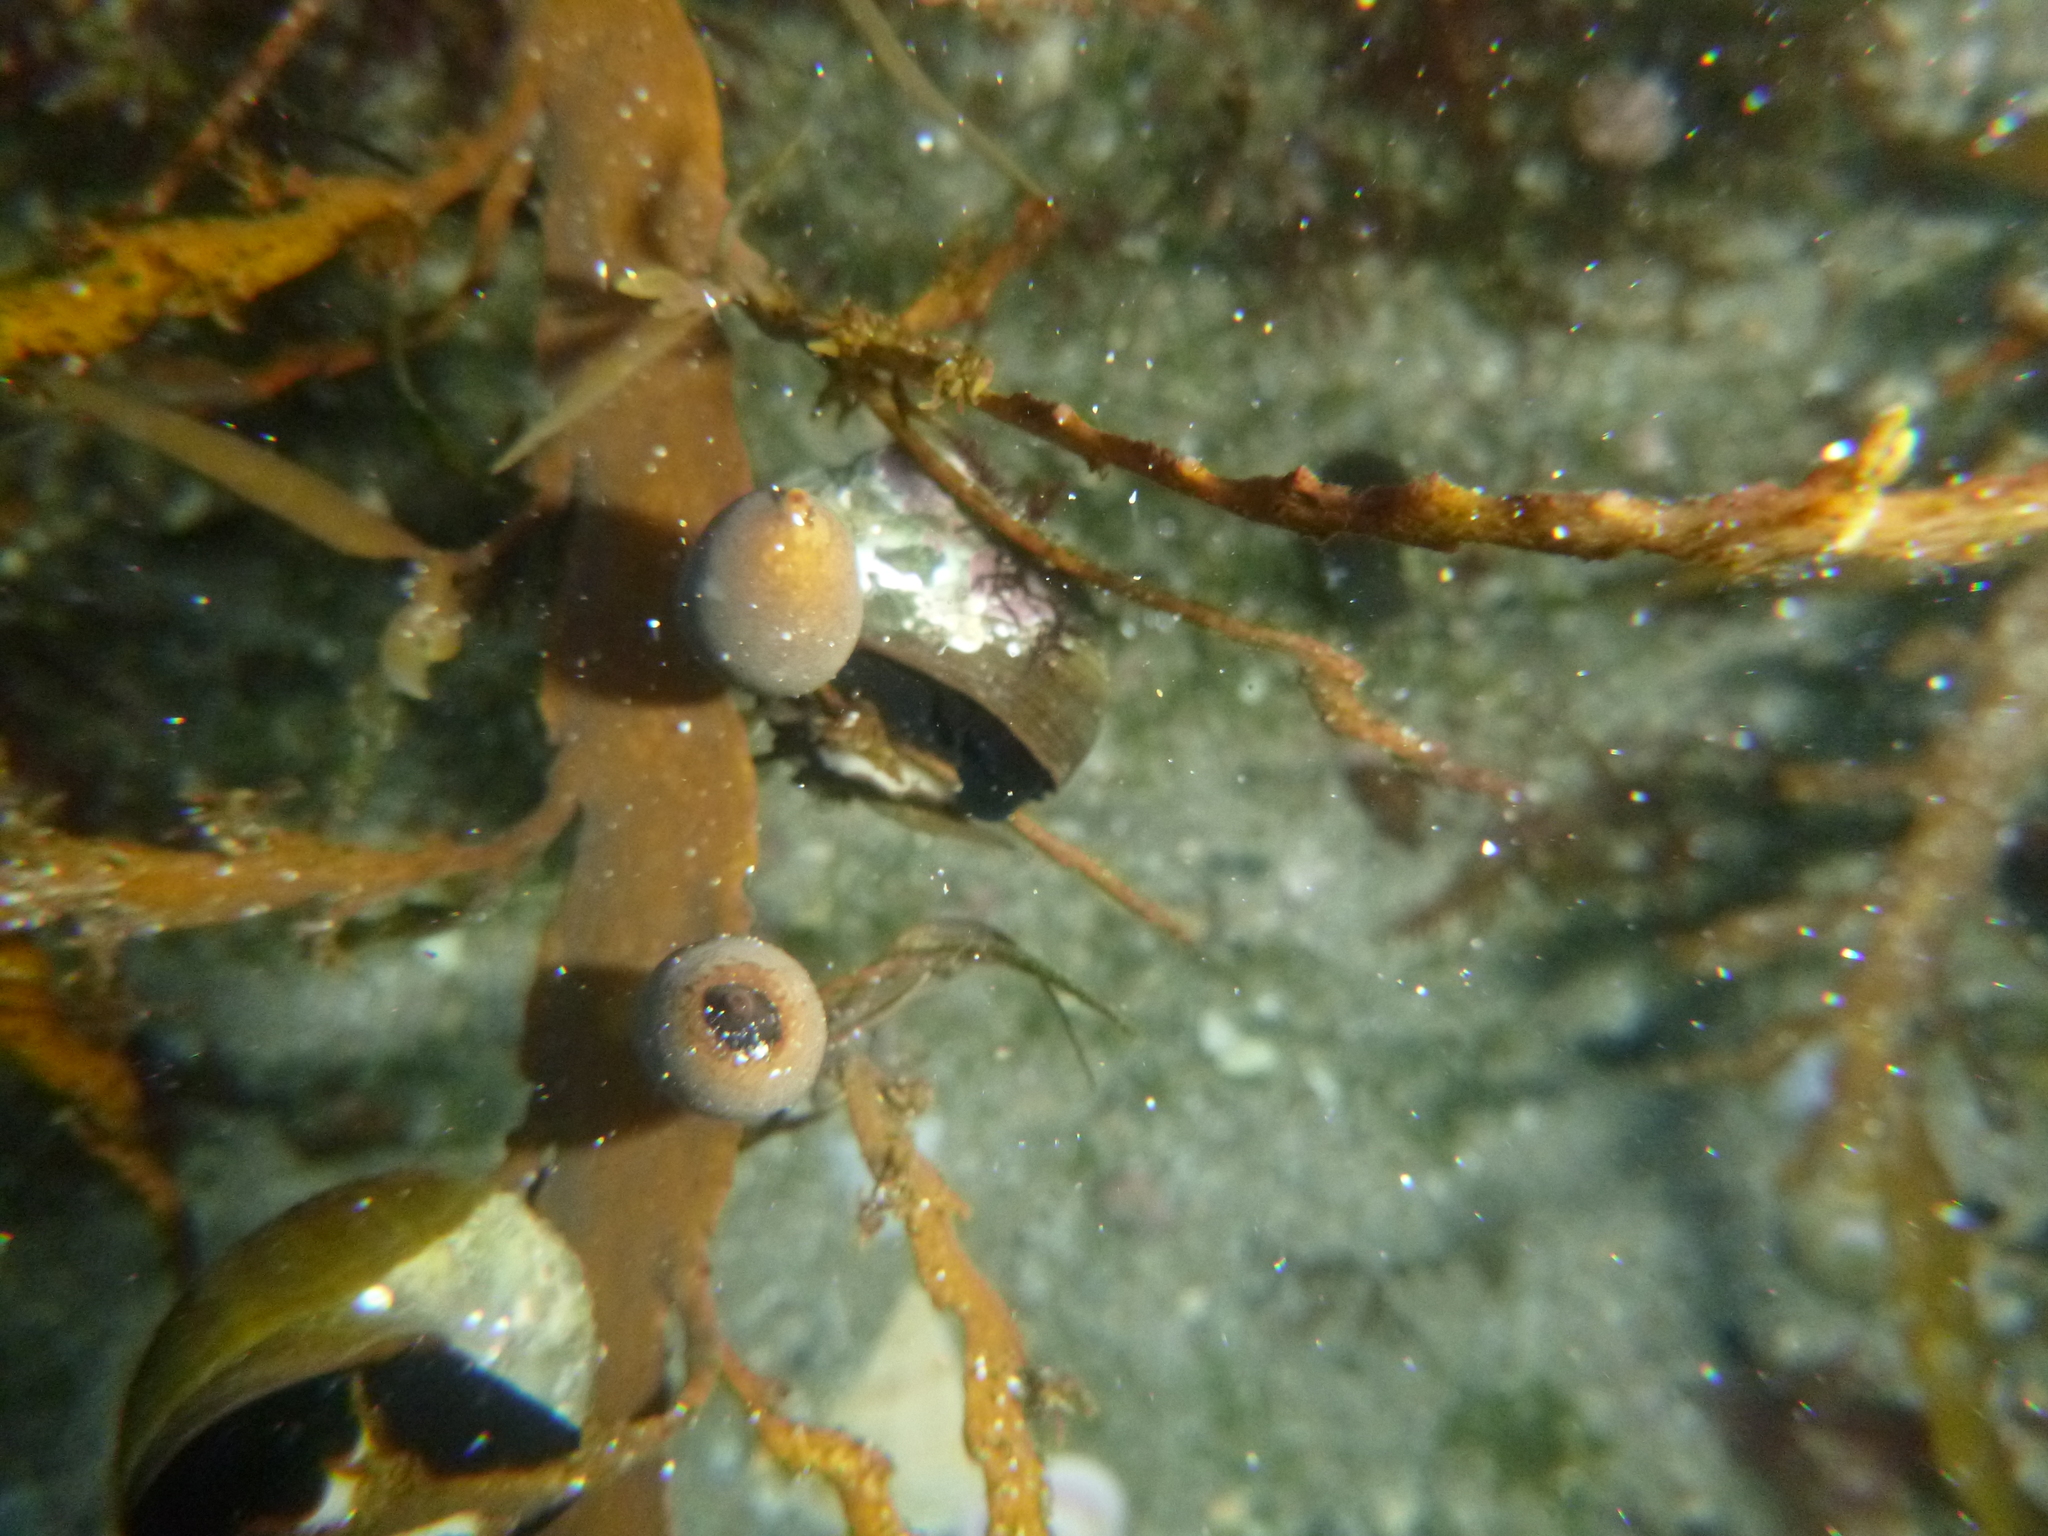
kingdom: Animalia
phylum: Mollusca
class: Gastropoda
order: Trochida
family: Turbinidae
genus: Lunella
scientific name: Lunella smaragda
